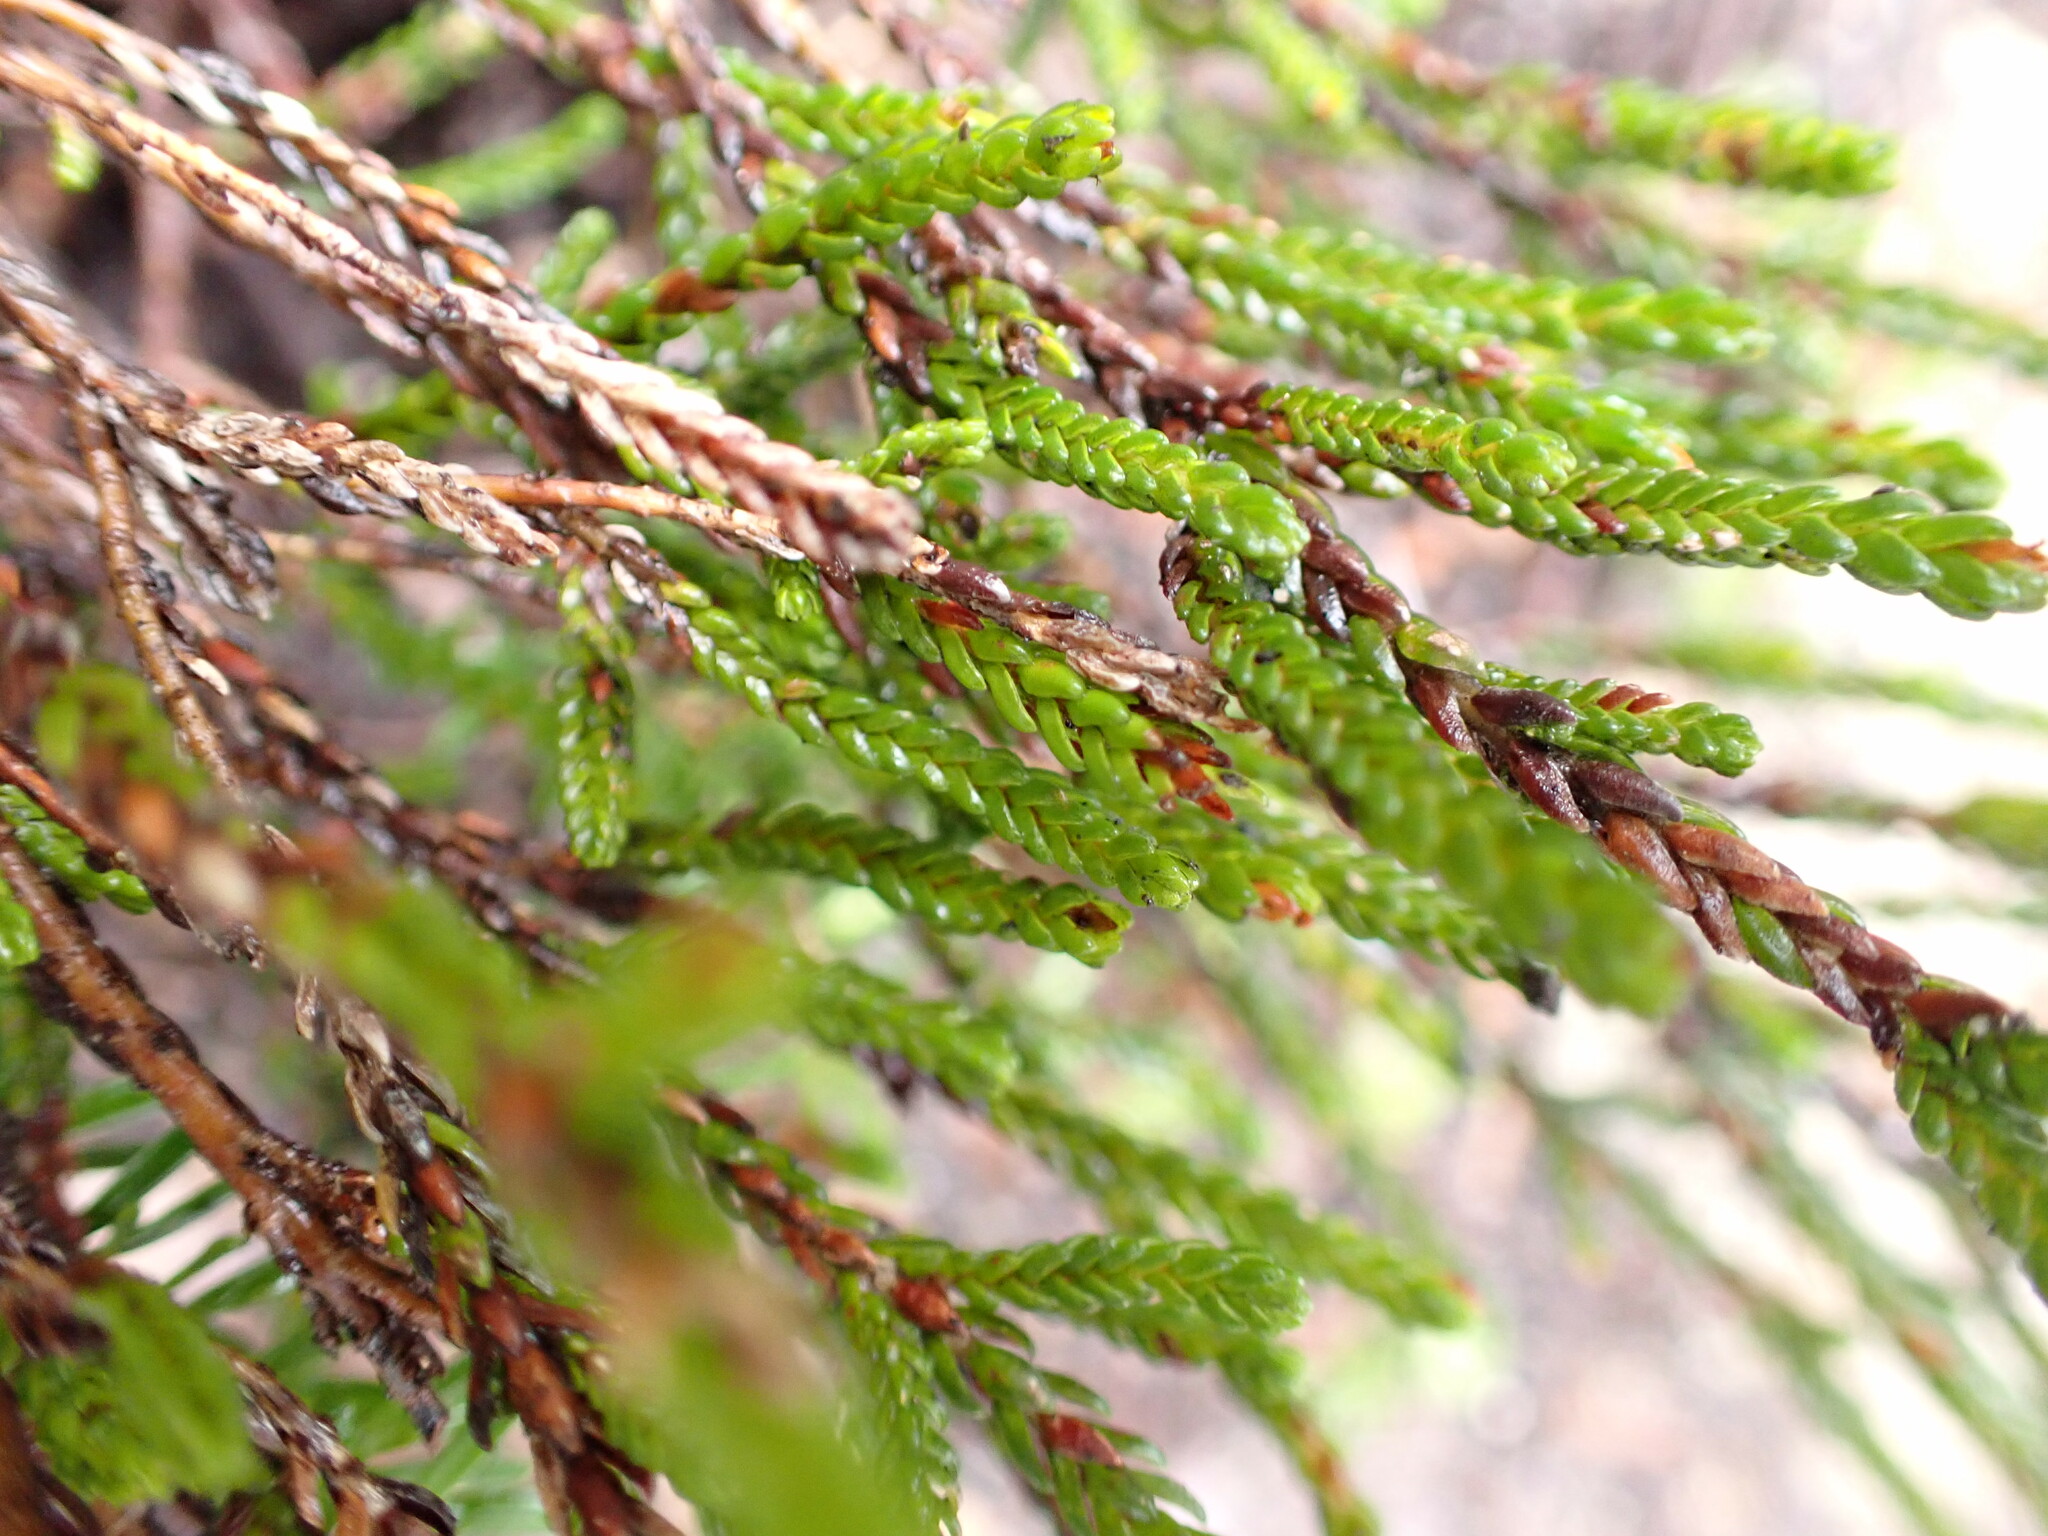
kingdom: Plantae
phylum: Tracheophyta
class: Magnoliopsida
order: Ericales
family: Ericaceae
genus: Cassiope
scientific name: Cassiope mertensiana
